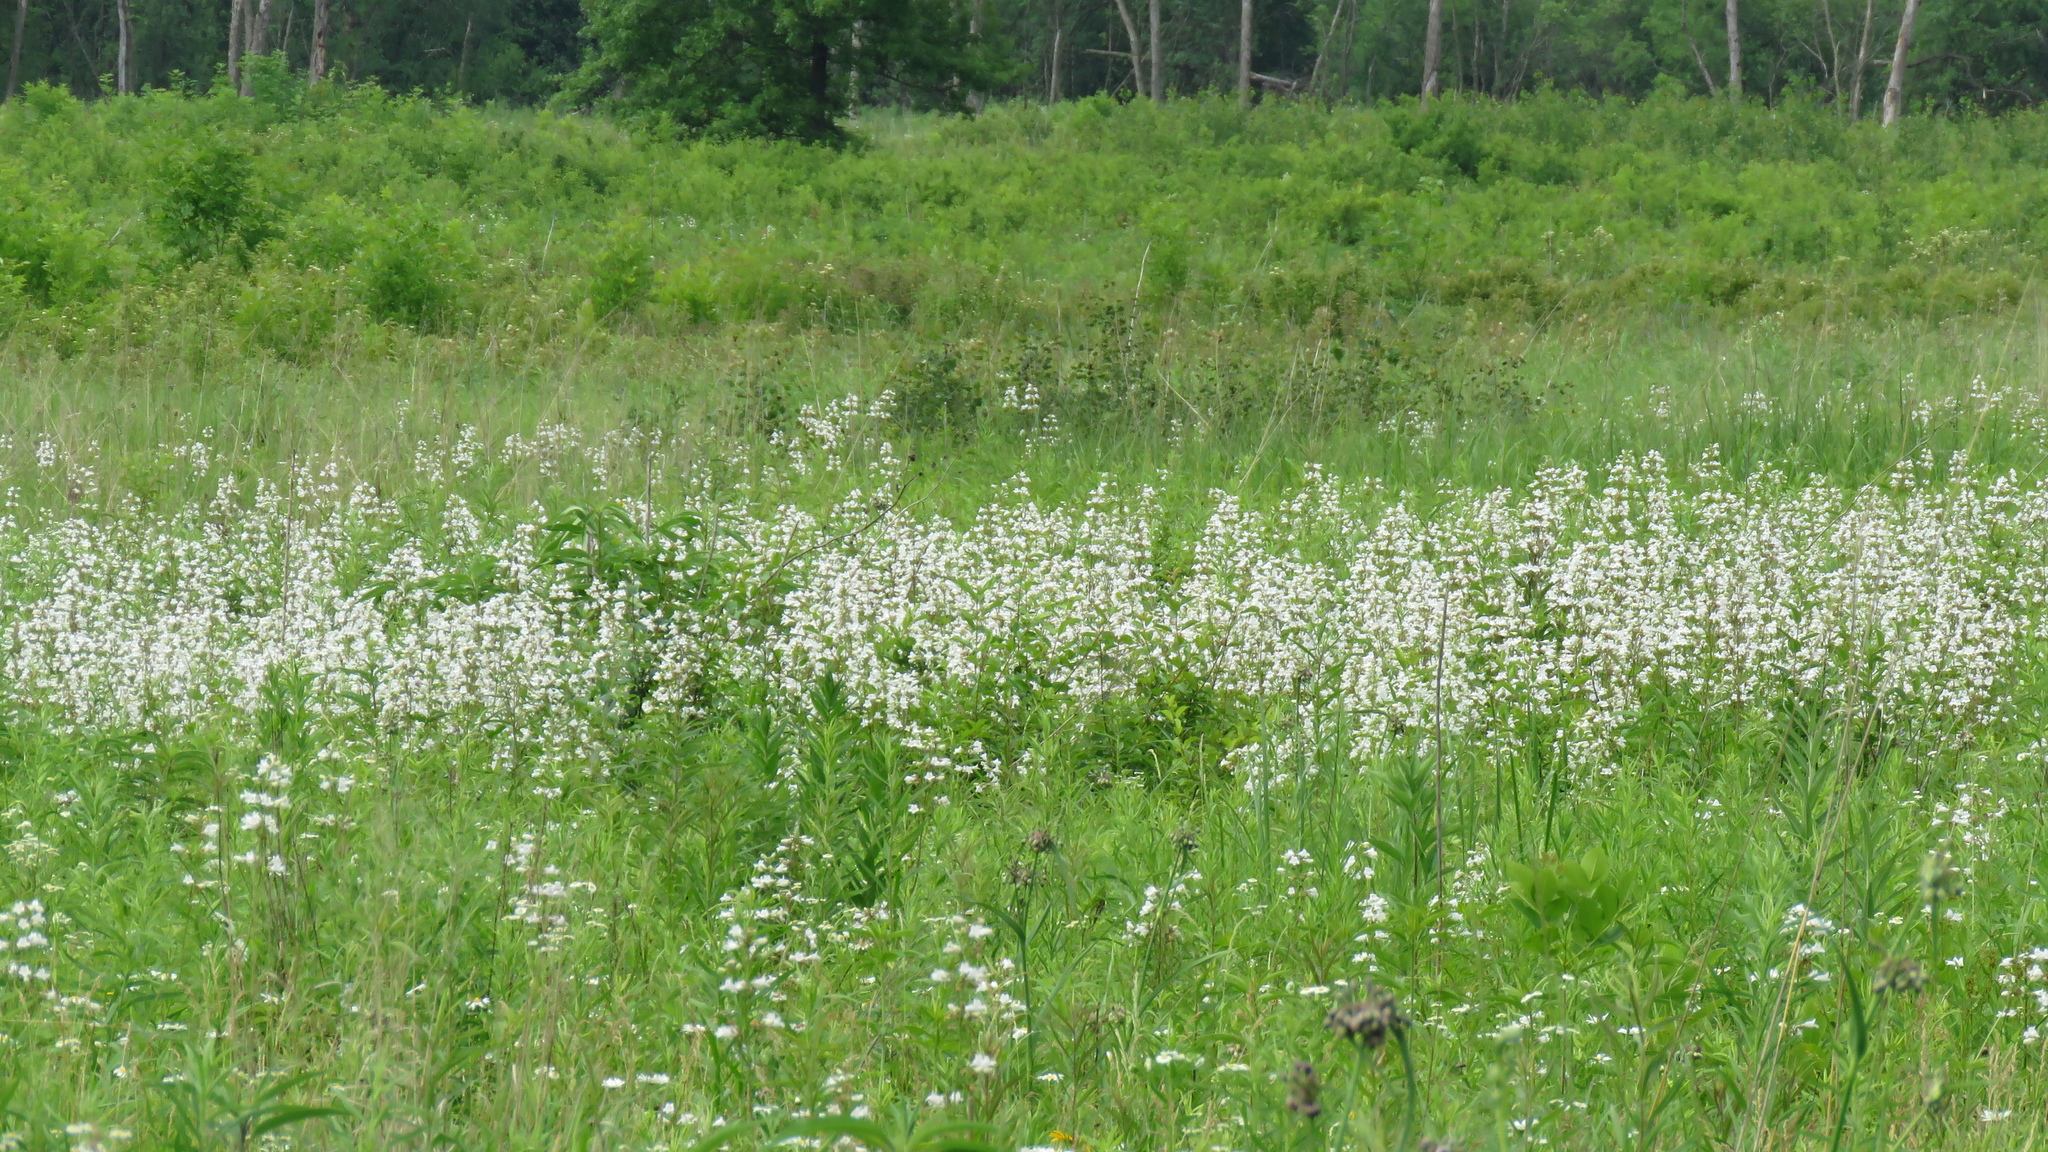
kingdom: Plantae
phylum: Tracheophyta
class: Magnoliopsida
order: Lamiales
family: Plantaginaceae
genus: Penstemon
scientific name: Penstemon digitalis
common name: Foxglove beardtongue
